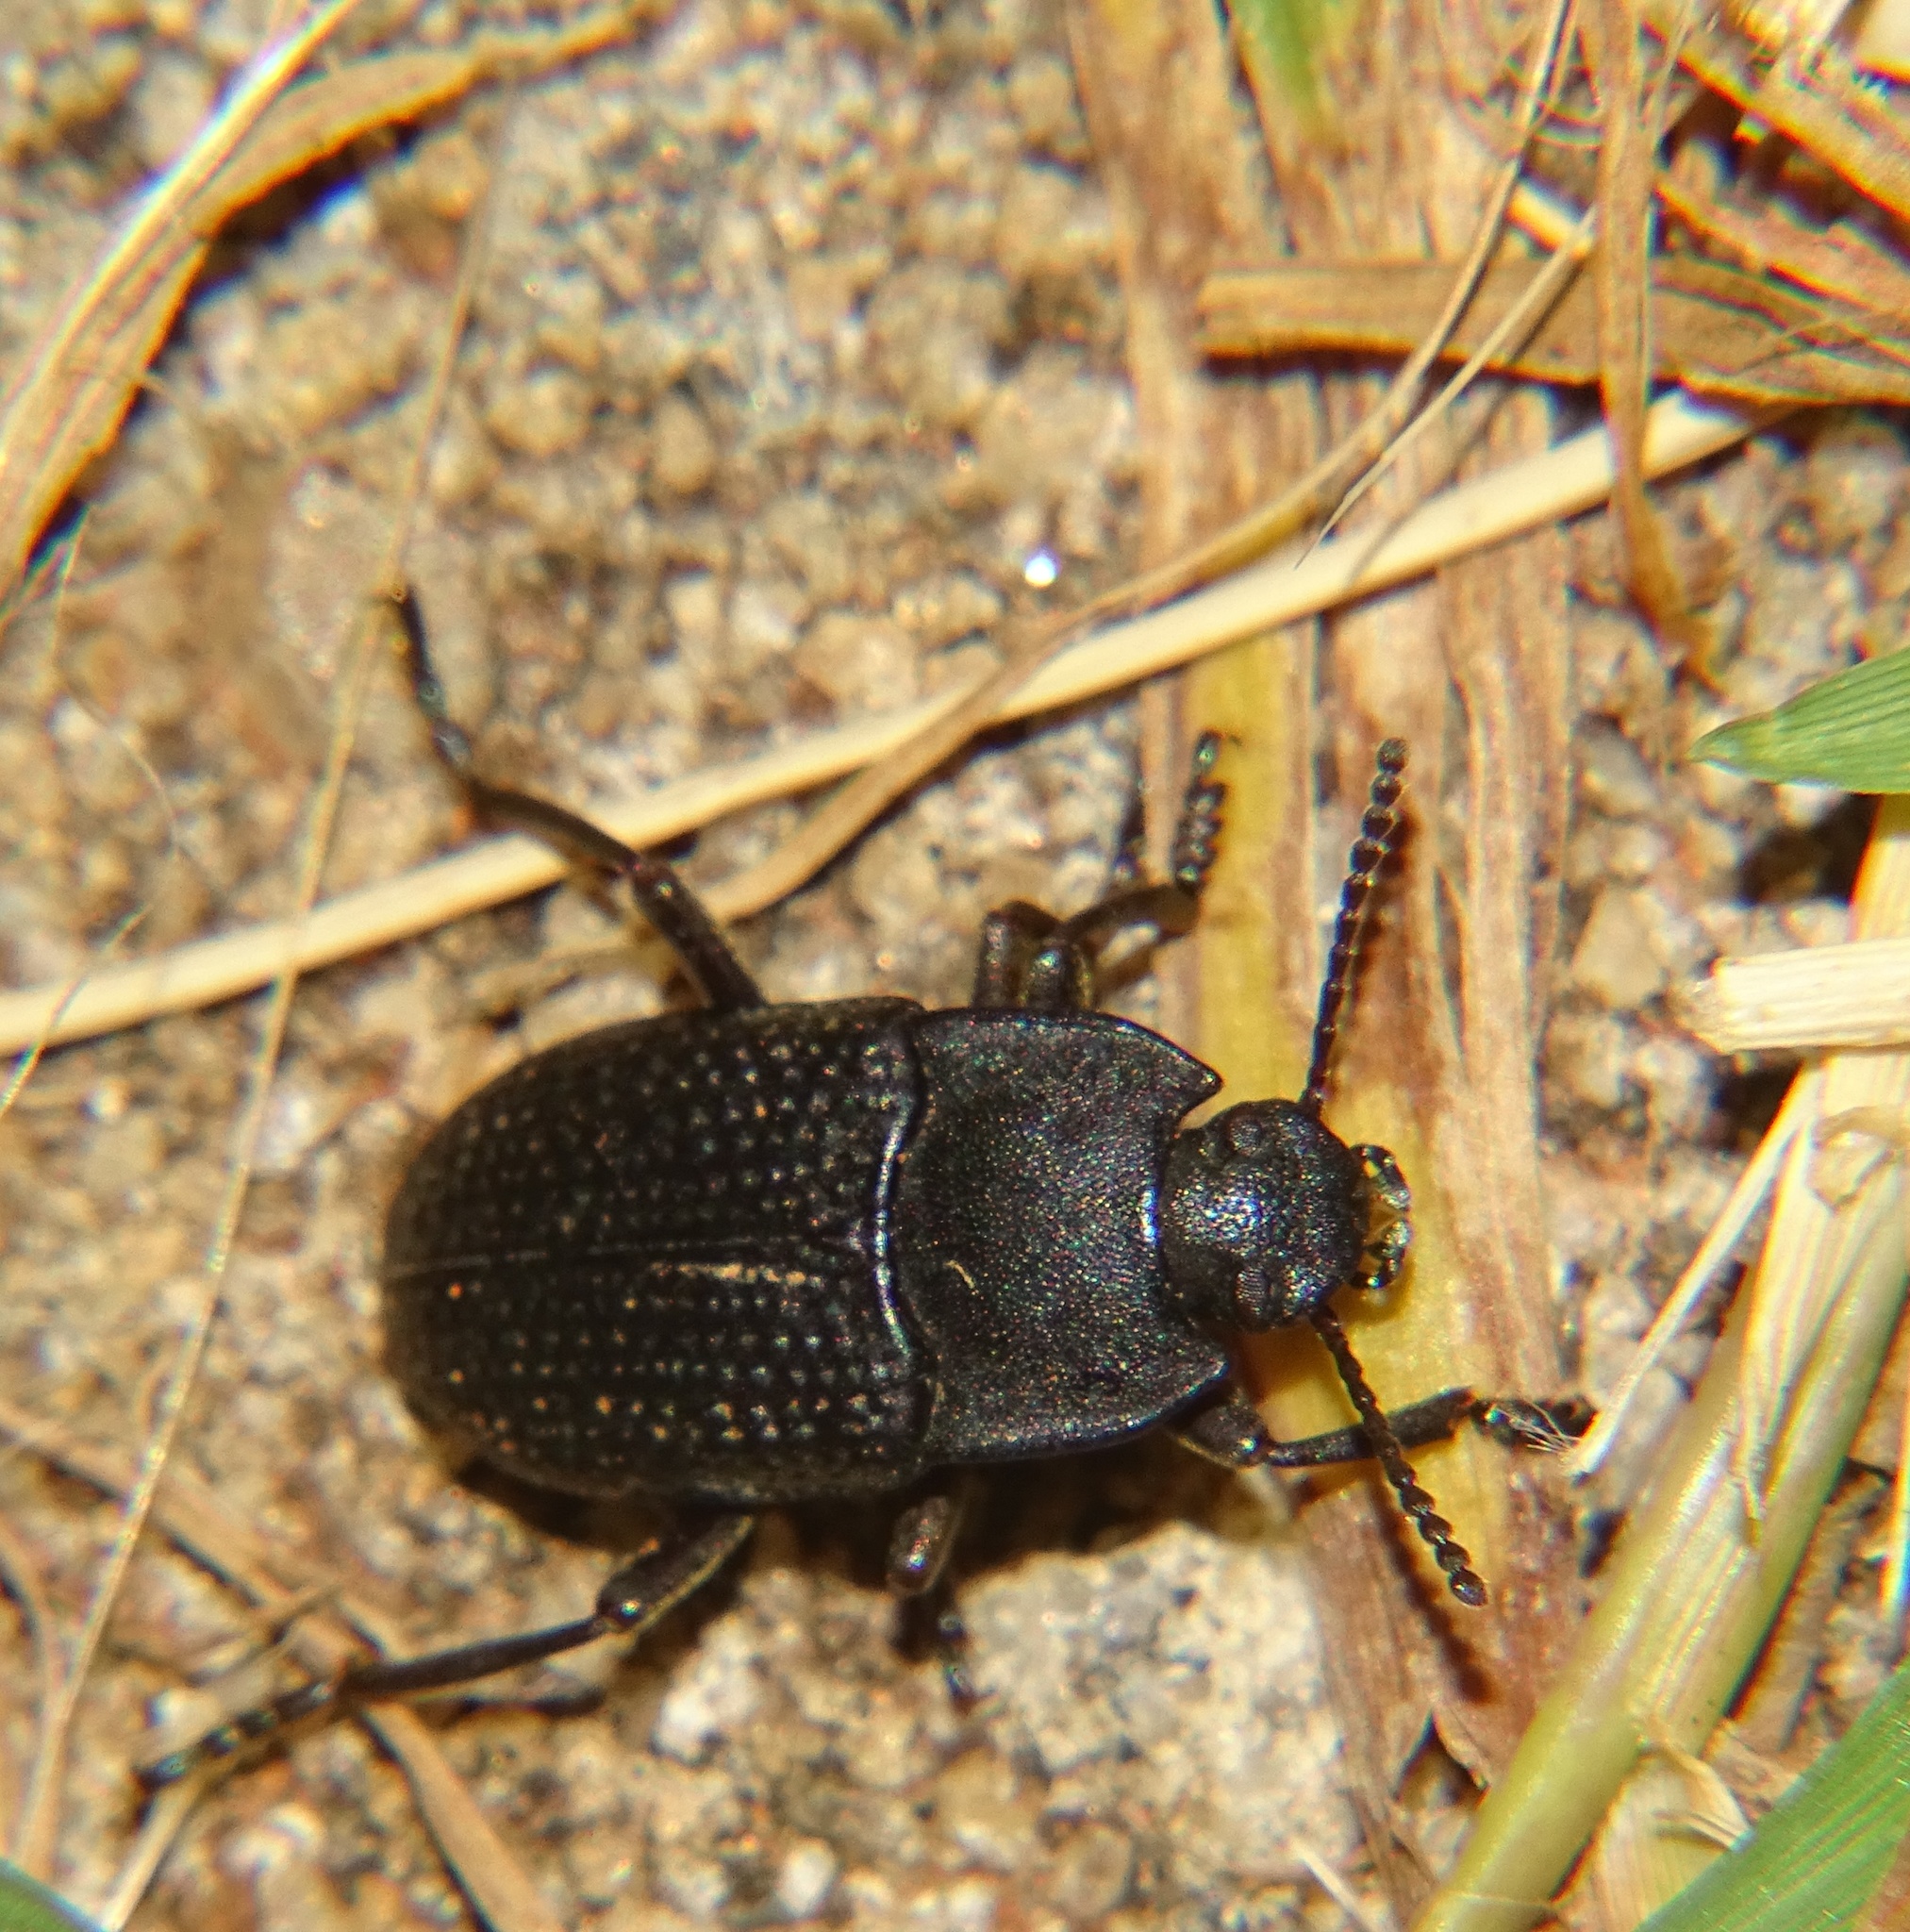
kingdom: Animalia
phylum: Arthropoda
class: Insecta
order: Coleoptera
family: Tenebrionidae
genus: Asiopus
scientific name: Asiopus
